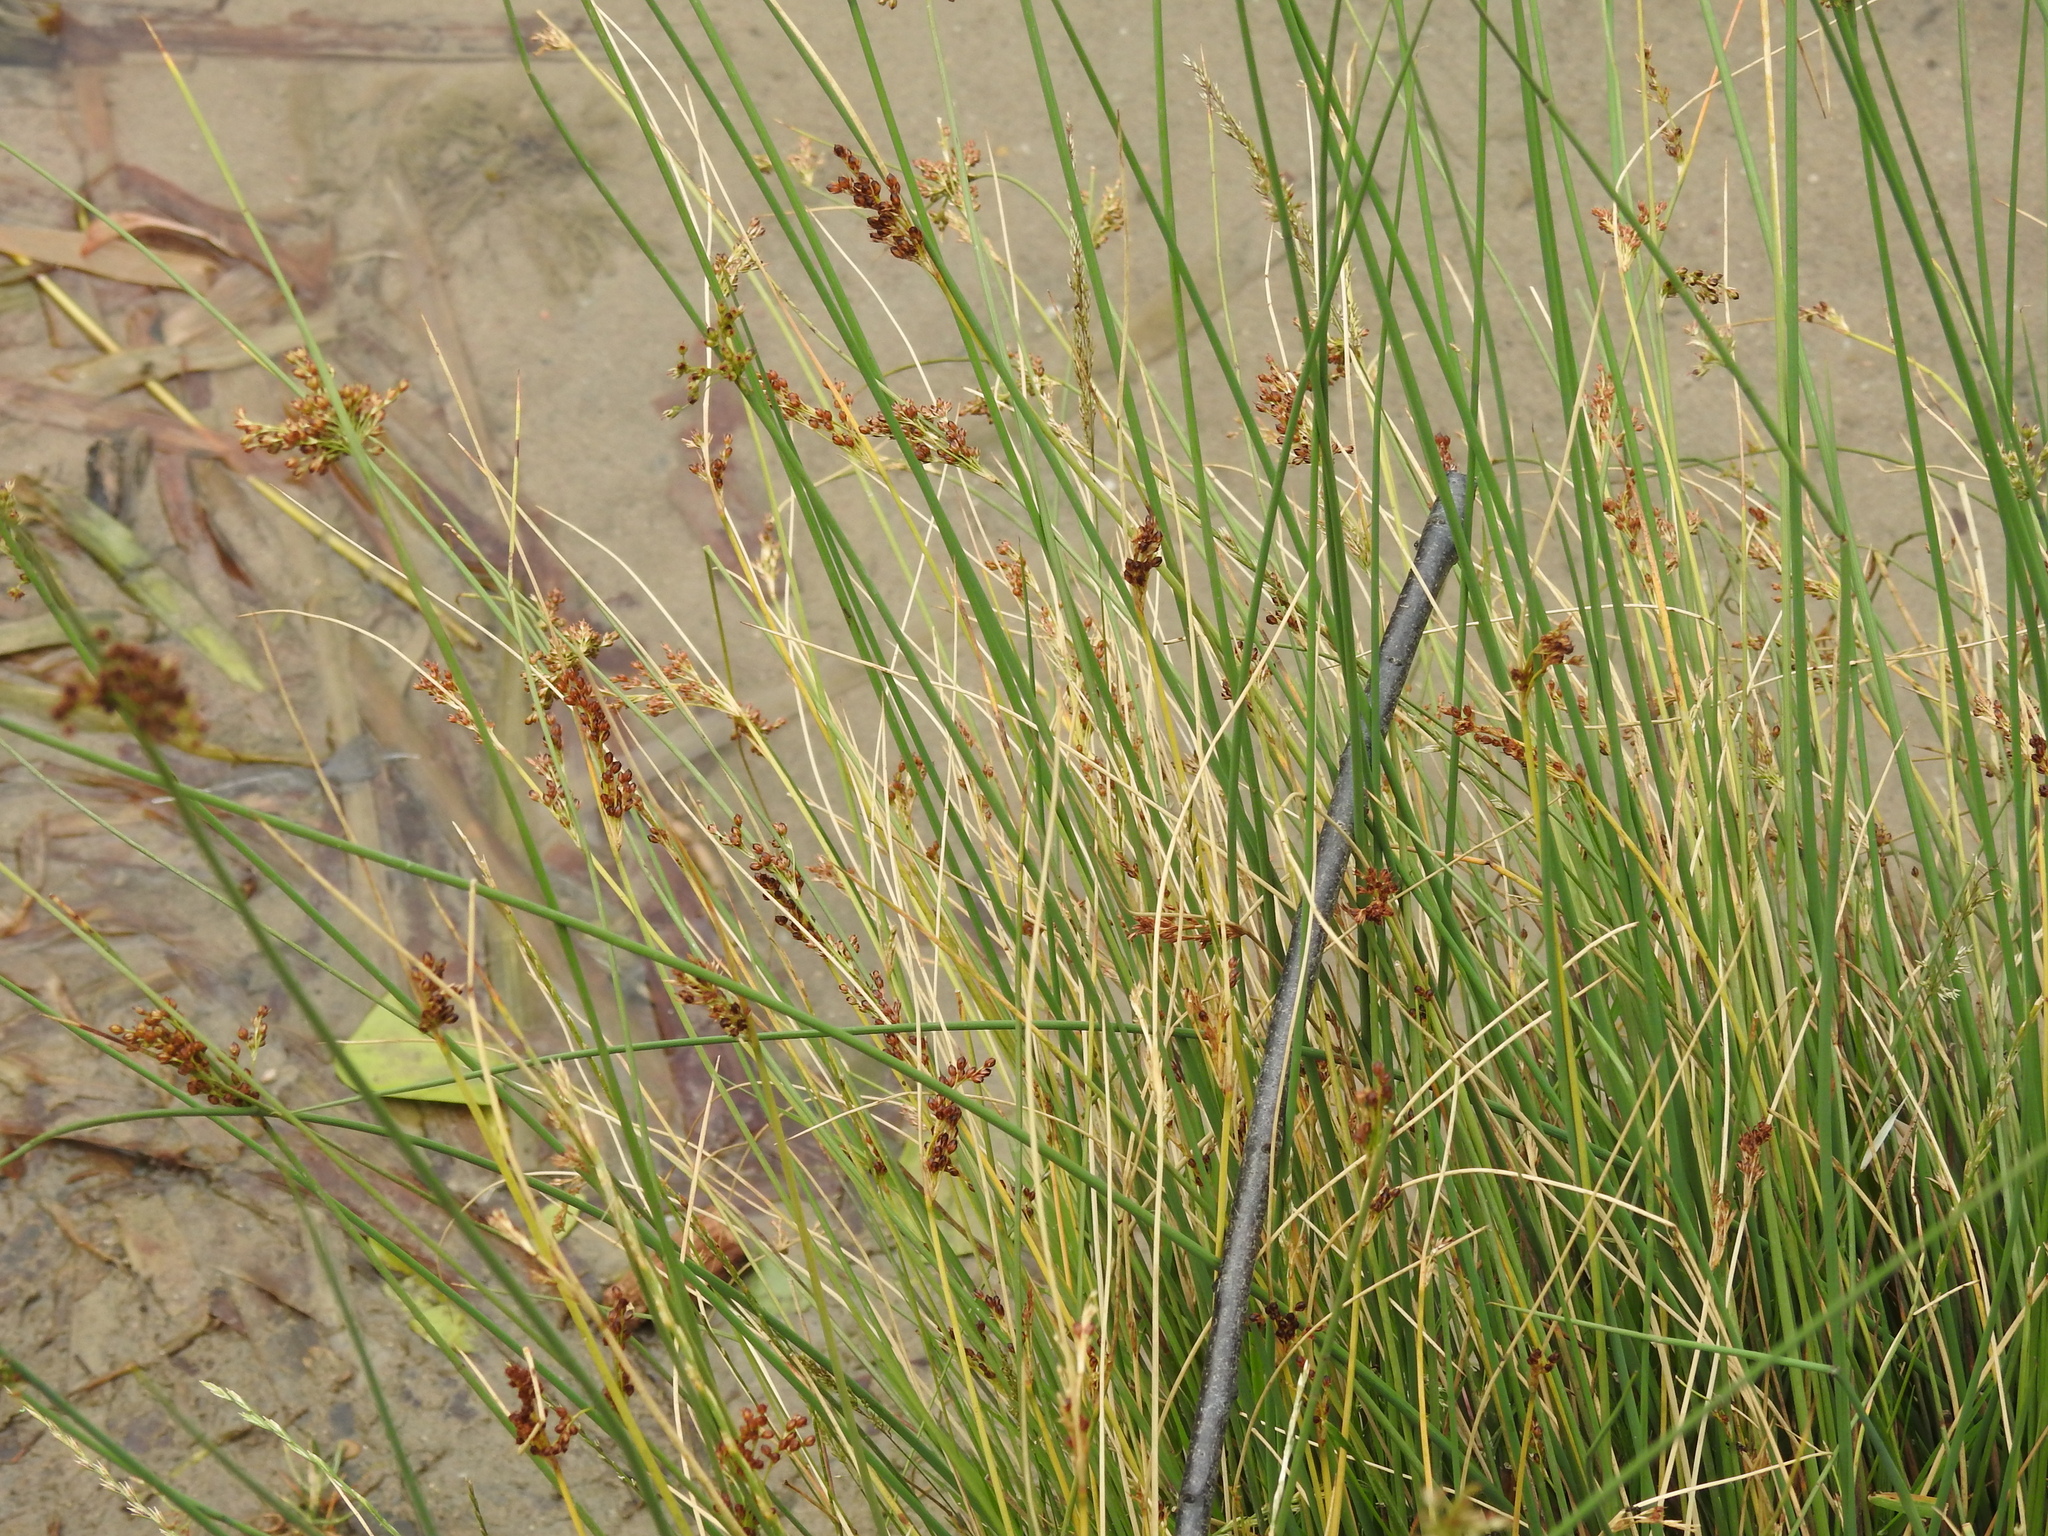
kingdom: Plantae
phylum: Tracheophyta
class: Liliopsida
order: Poales
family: Juncaceae
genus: Juncus
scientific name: Juncus inflexus
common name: Hard rush
